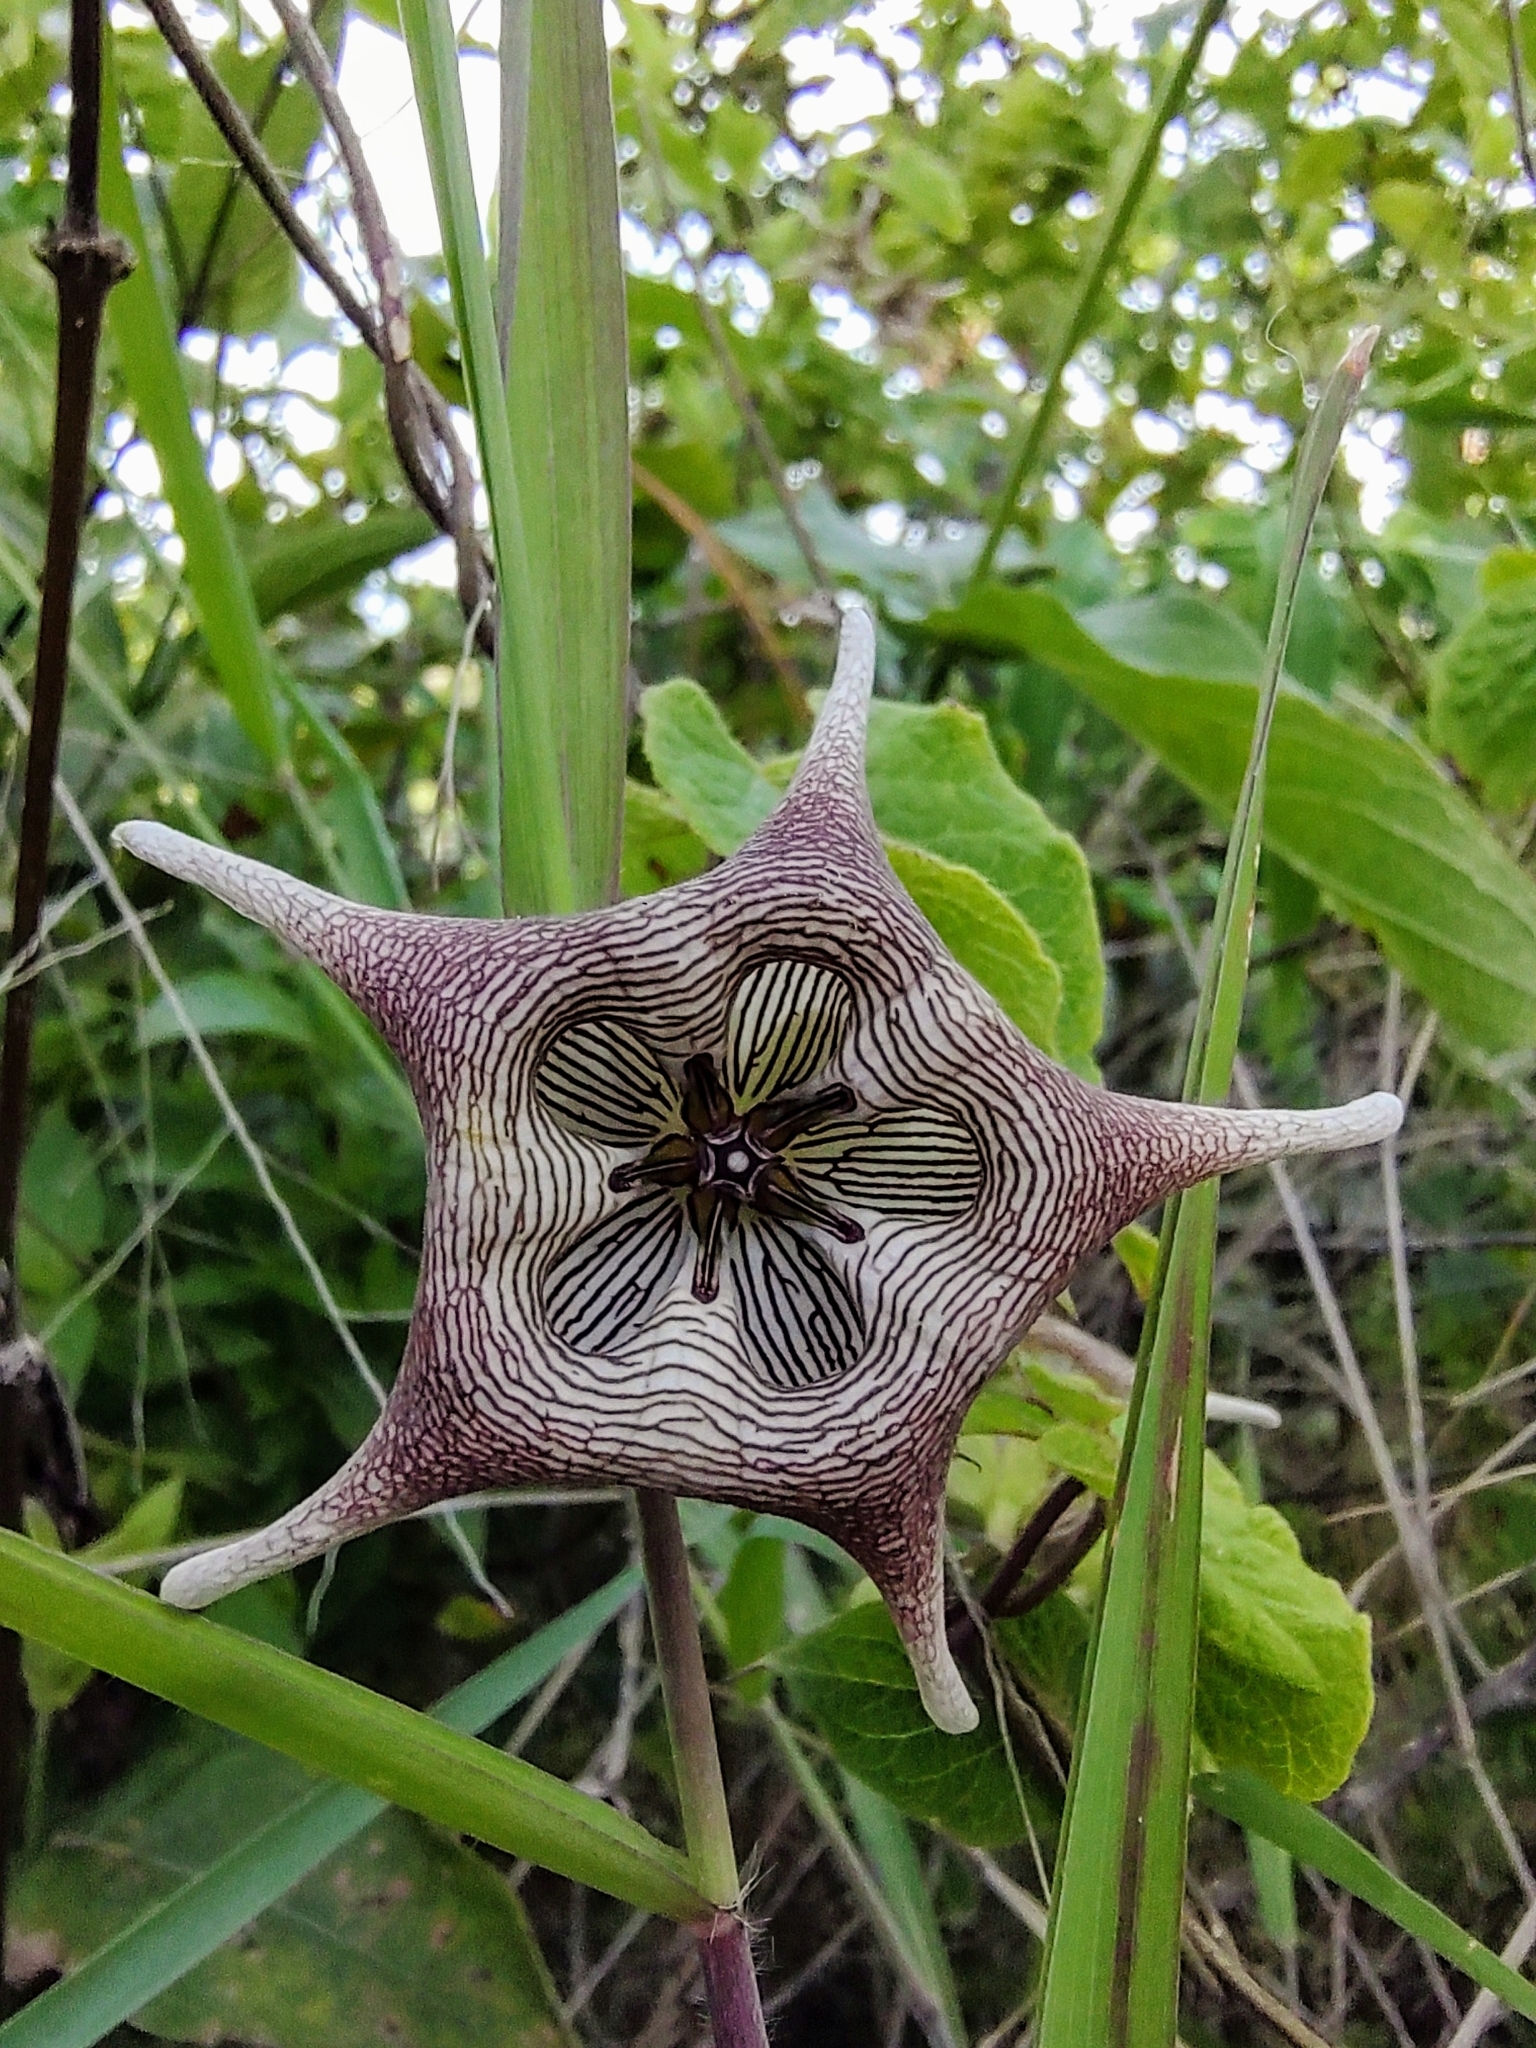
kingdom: Plantae
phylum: Tracheophyta
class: Magnoliopsida
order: Gentianales
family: Apocynaceae
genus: Dictyanthus
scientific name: Dictyanthus pavonii
